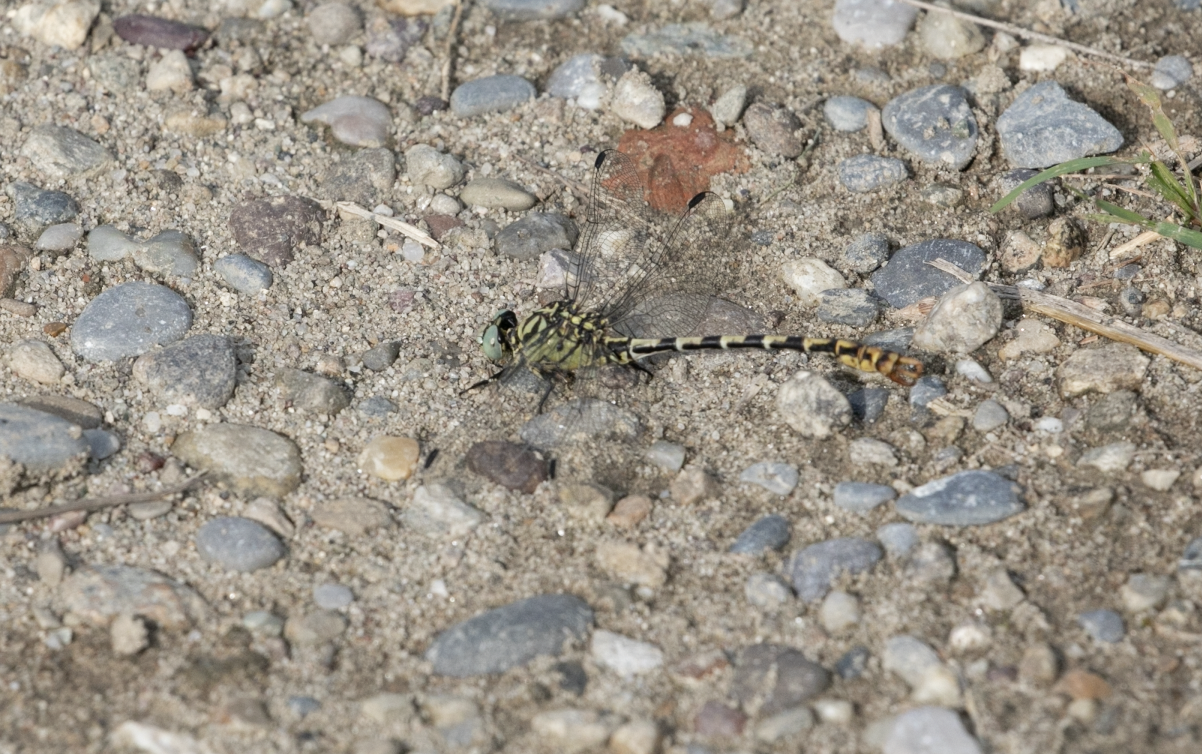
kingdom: Animalia
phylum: Arthropoda
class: Insecta
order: Odonata
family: Gomphidae
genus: Onychogomphus
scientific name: Onychogomphus forcipatus
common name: Small pincertail
